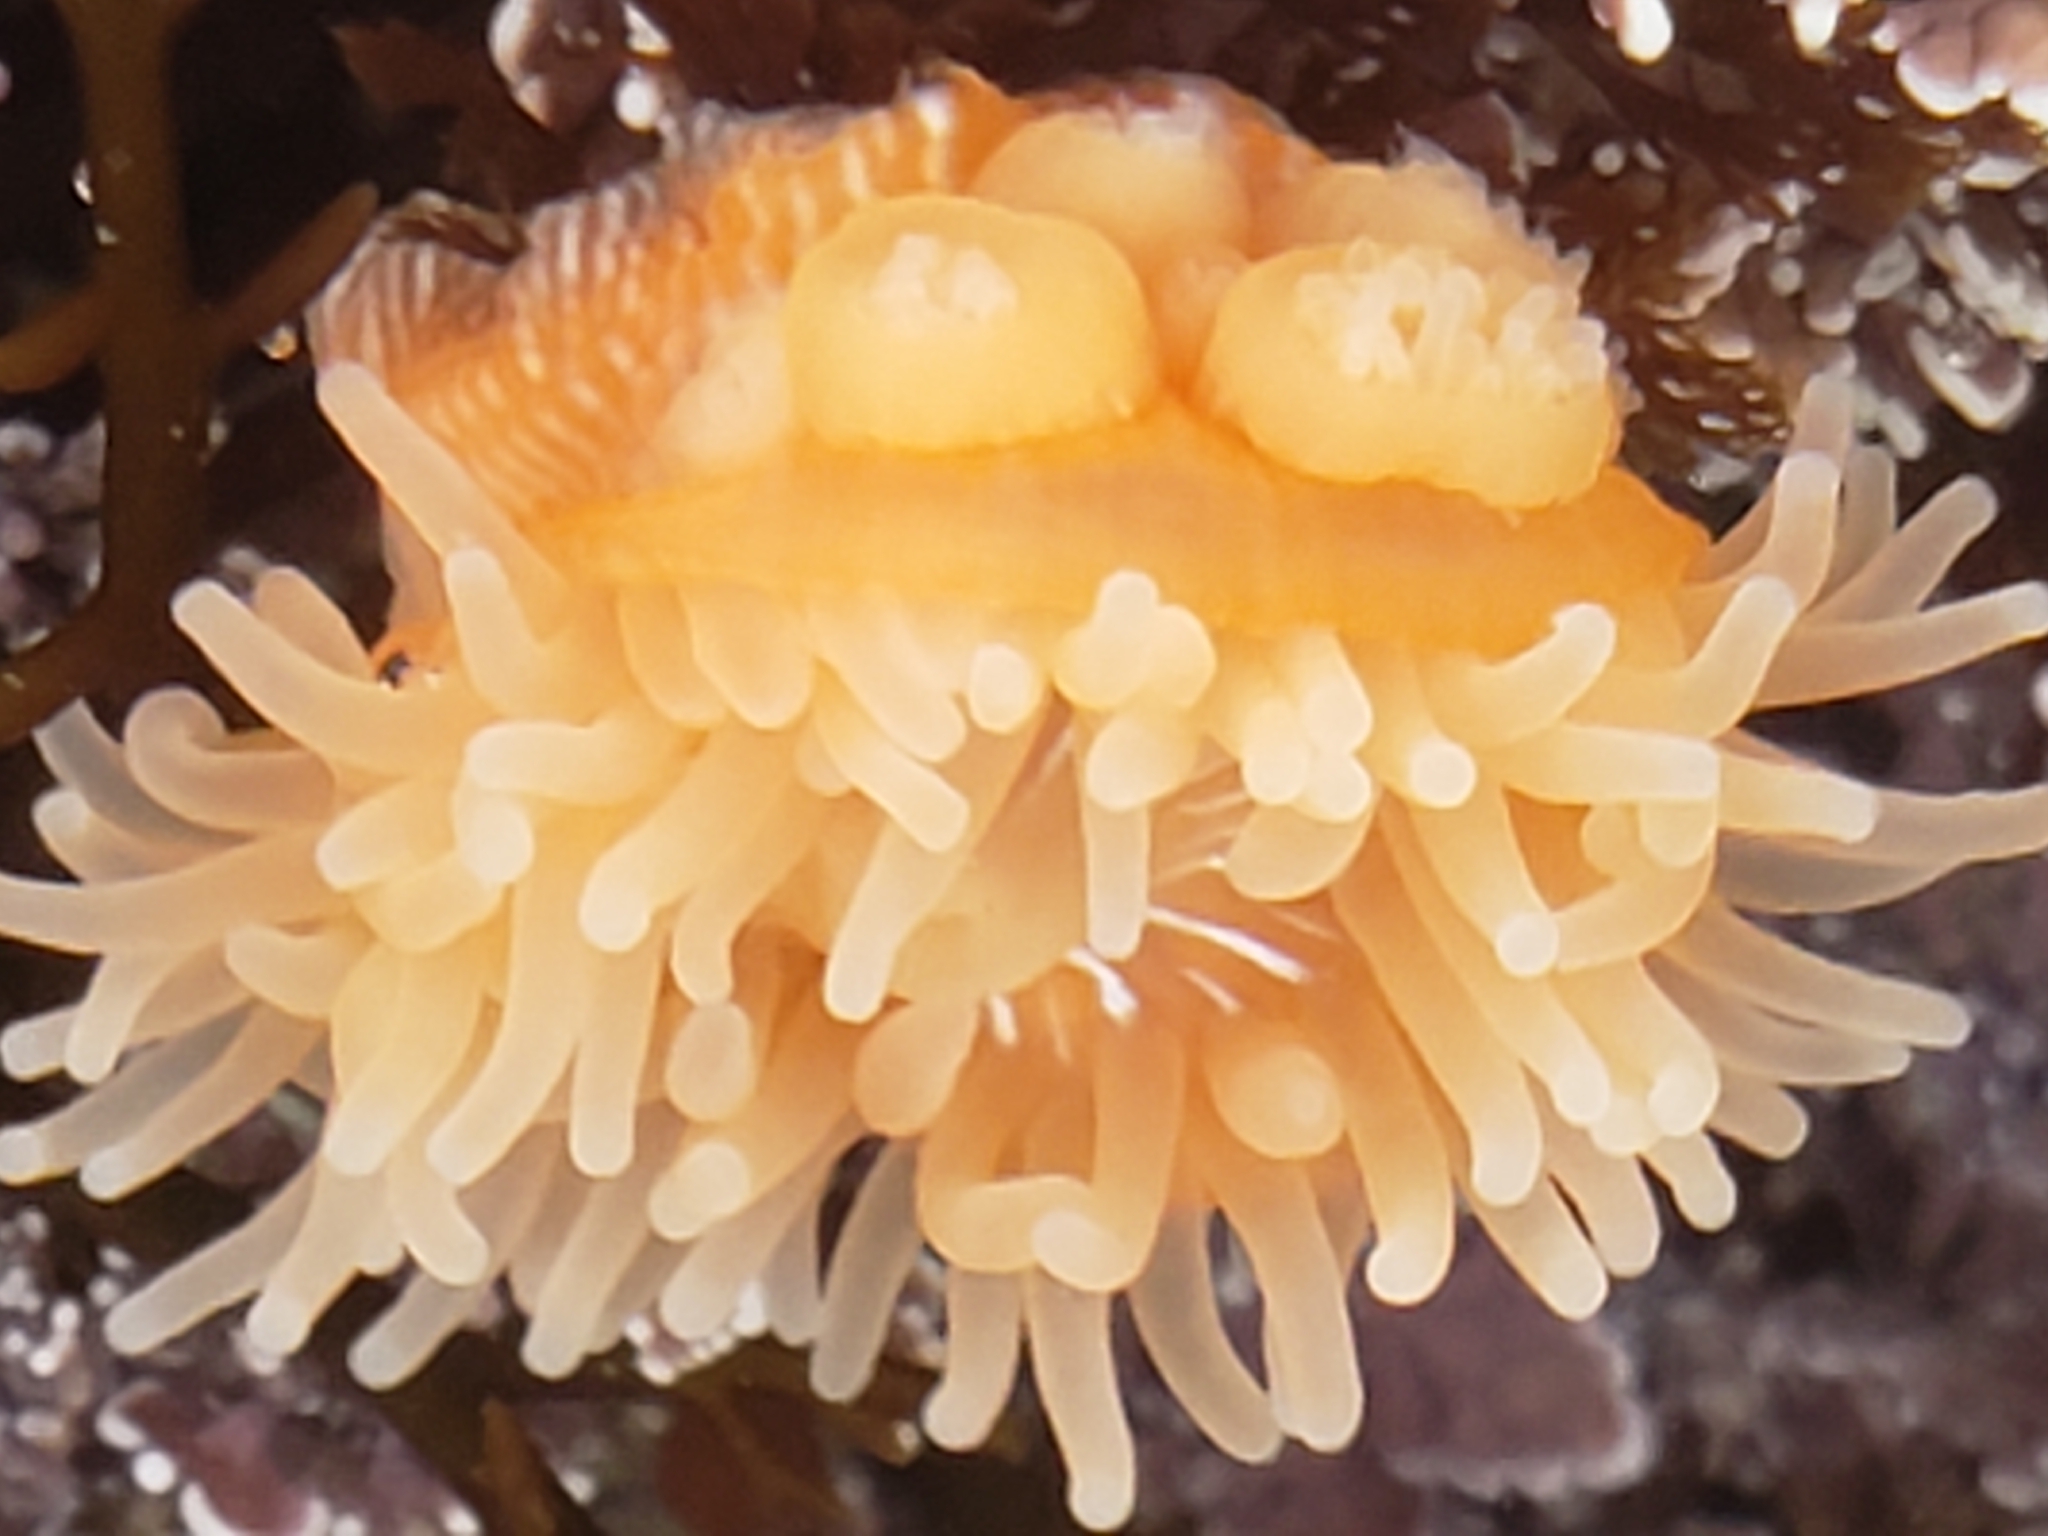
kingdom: Animalia
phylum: Cnidaria
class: Anthozoa
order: Actiniaria
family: Actiniidae
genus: Epiactis
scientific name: Epiactis prolifera
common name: Brooding anemone
